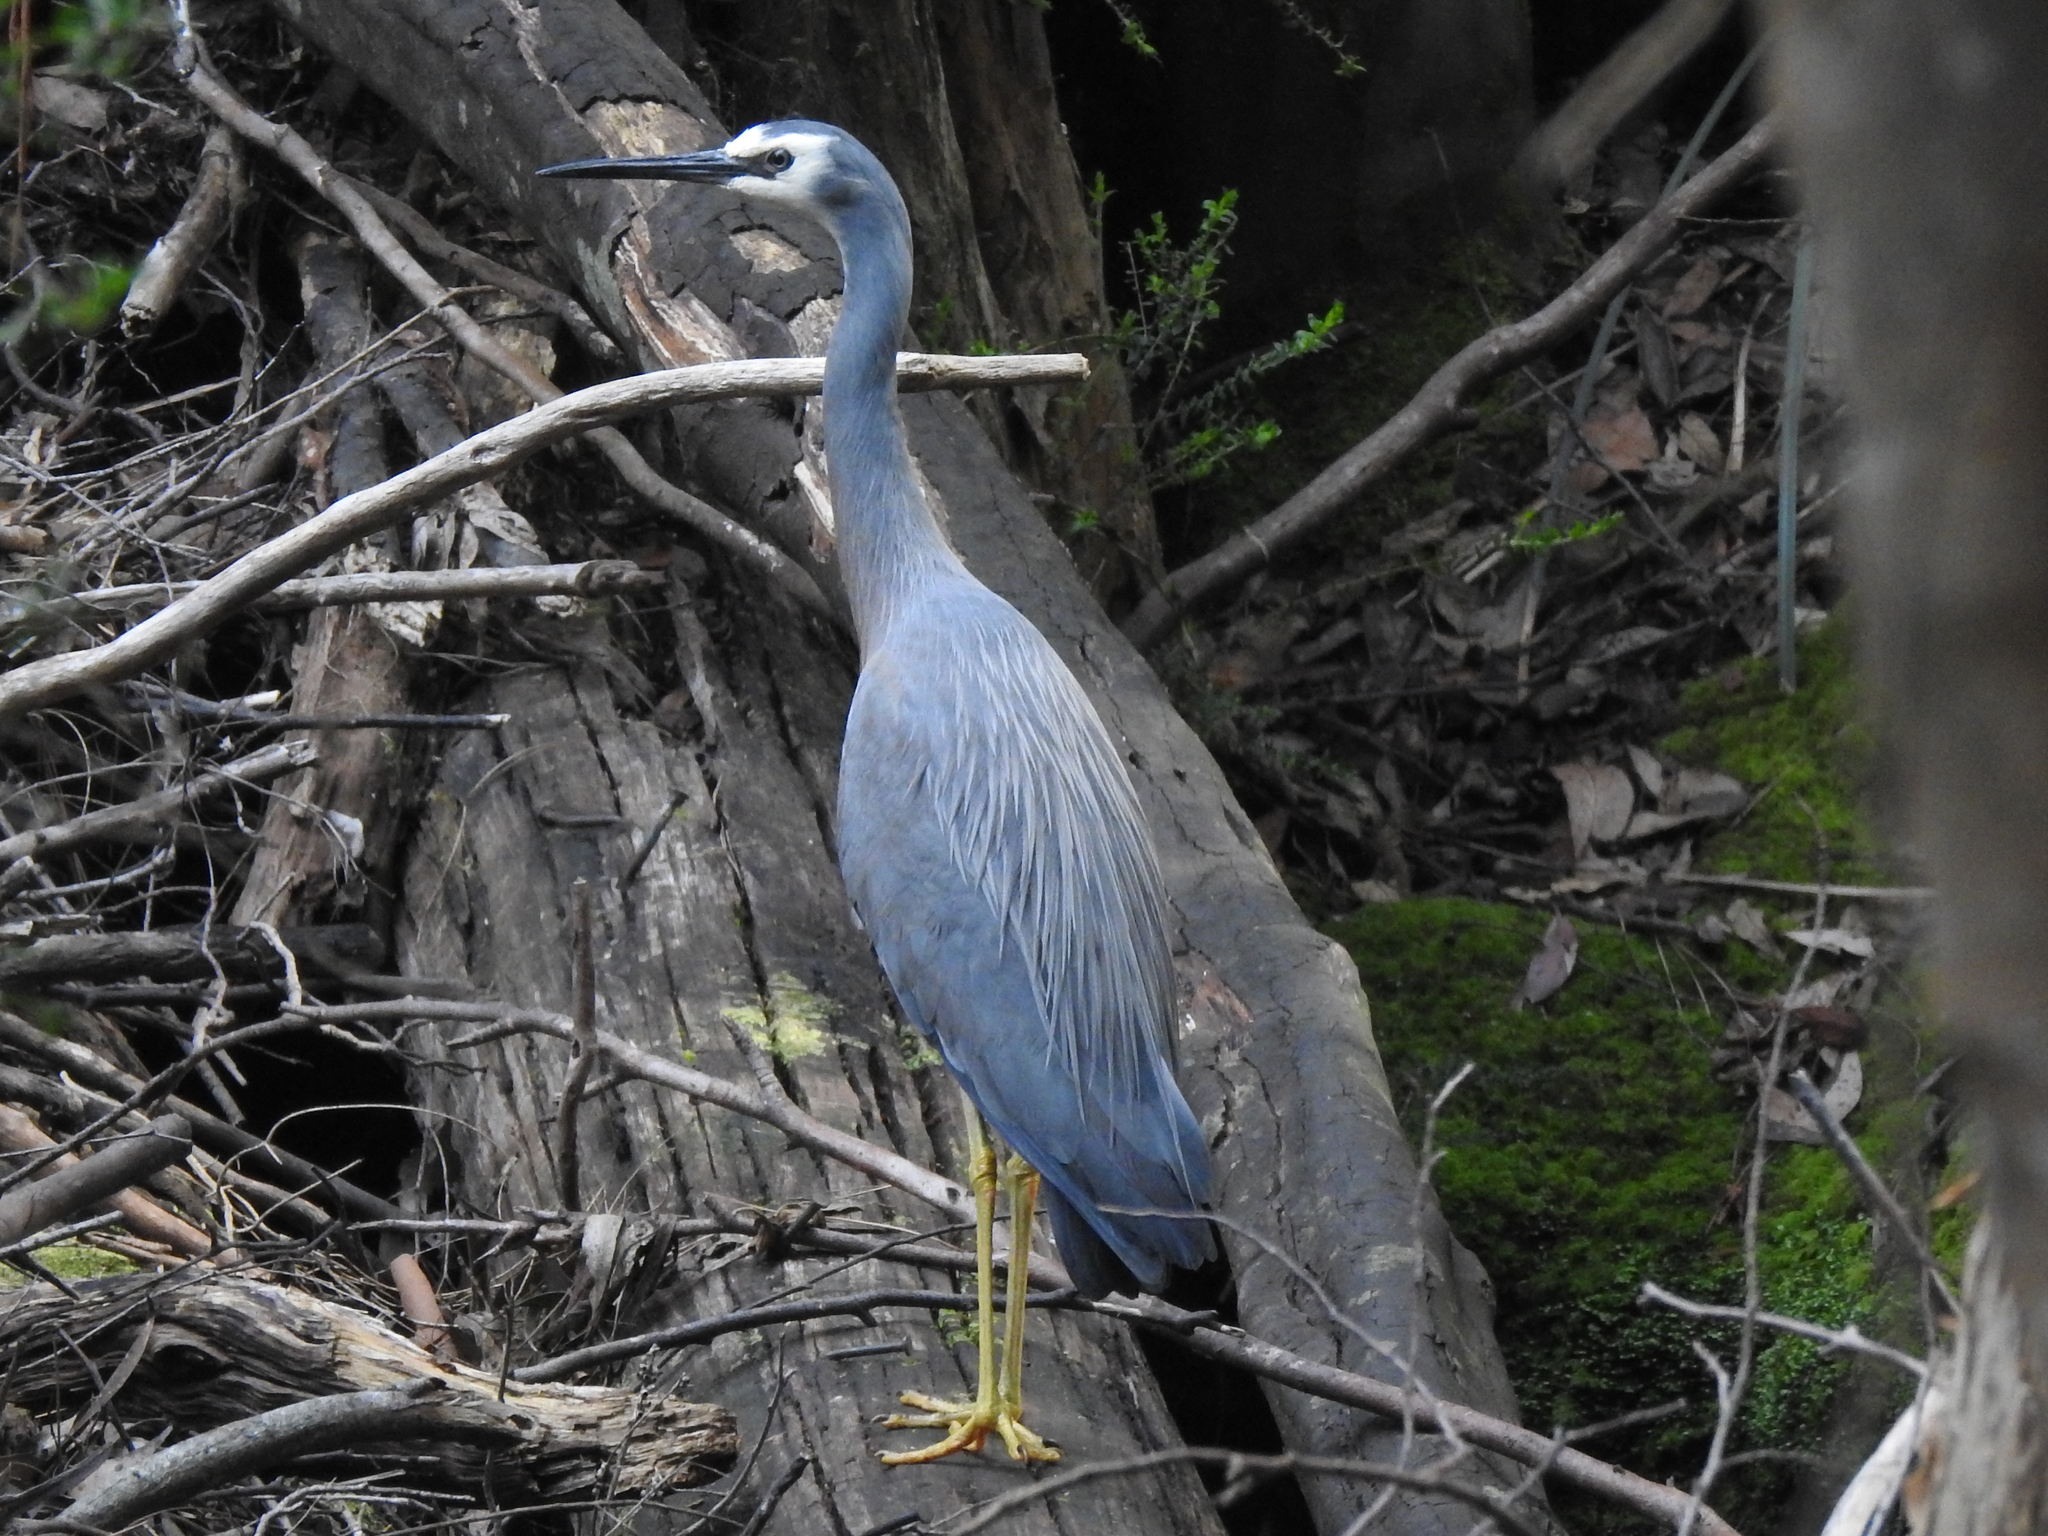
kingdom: Animalia
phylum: Chordata
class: Aves
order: Pelecaniformes
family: Ardeidae
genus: Egretta
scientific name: Egretta novaehollandiae
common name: White-faced heron
